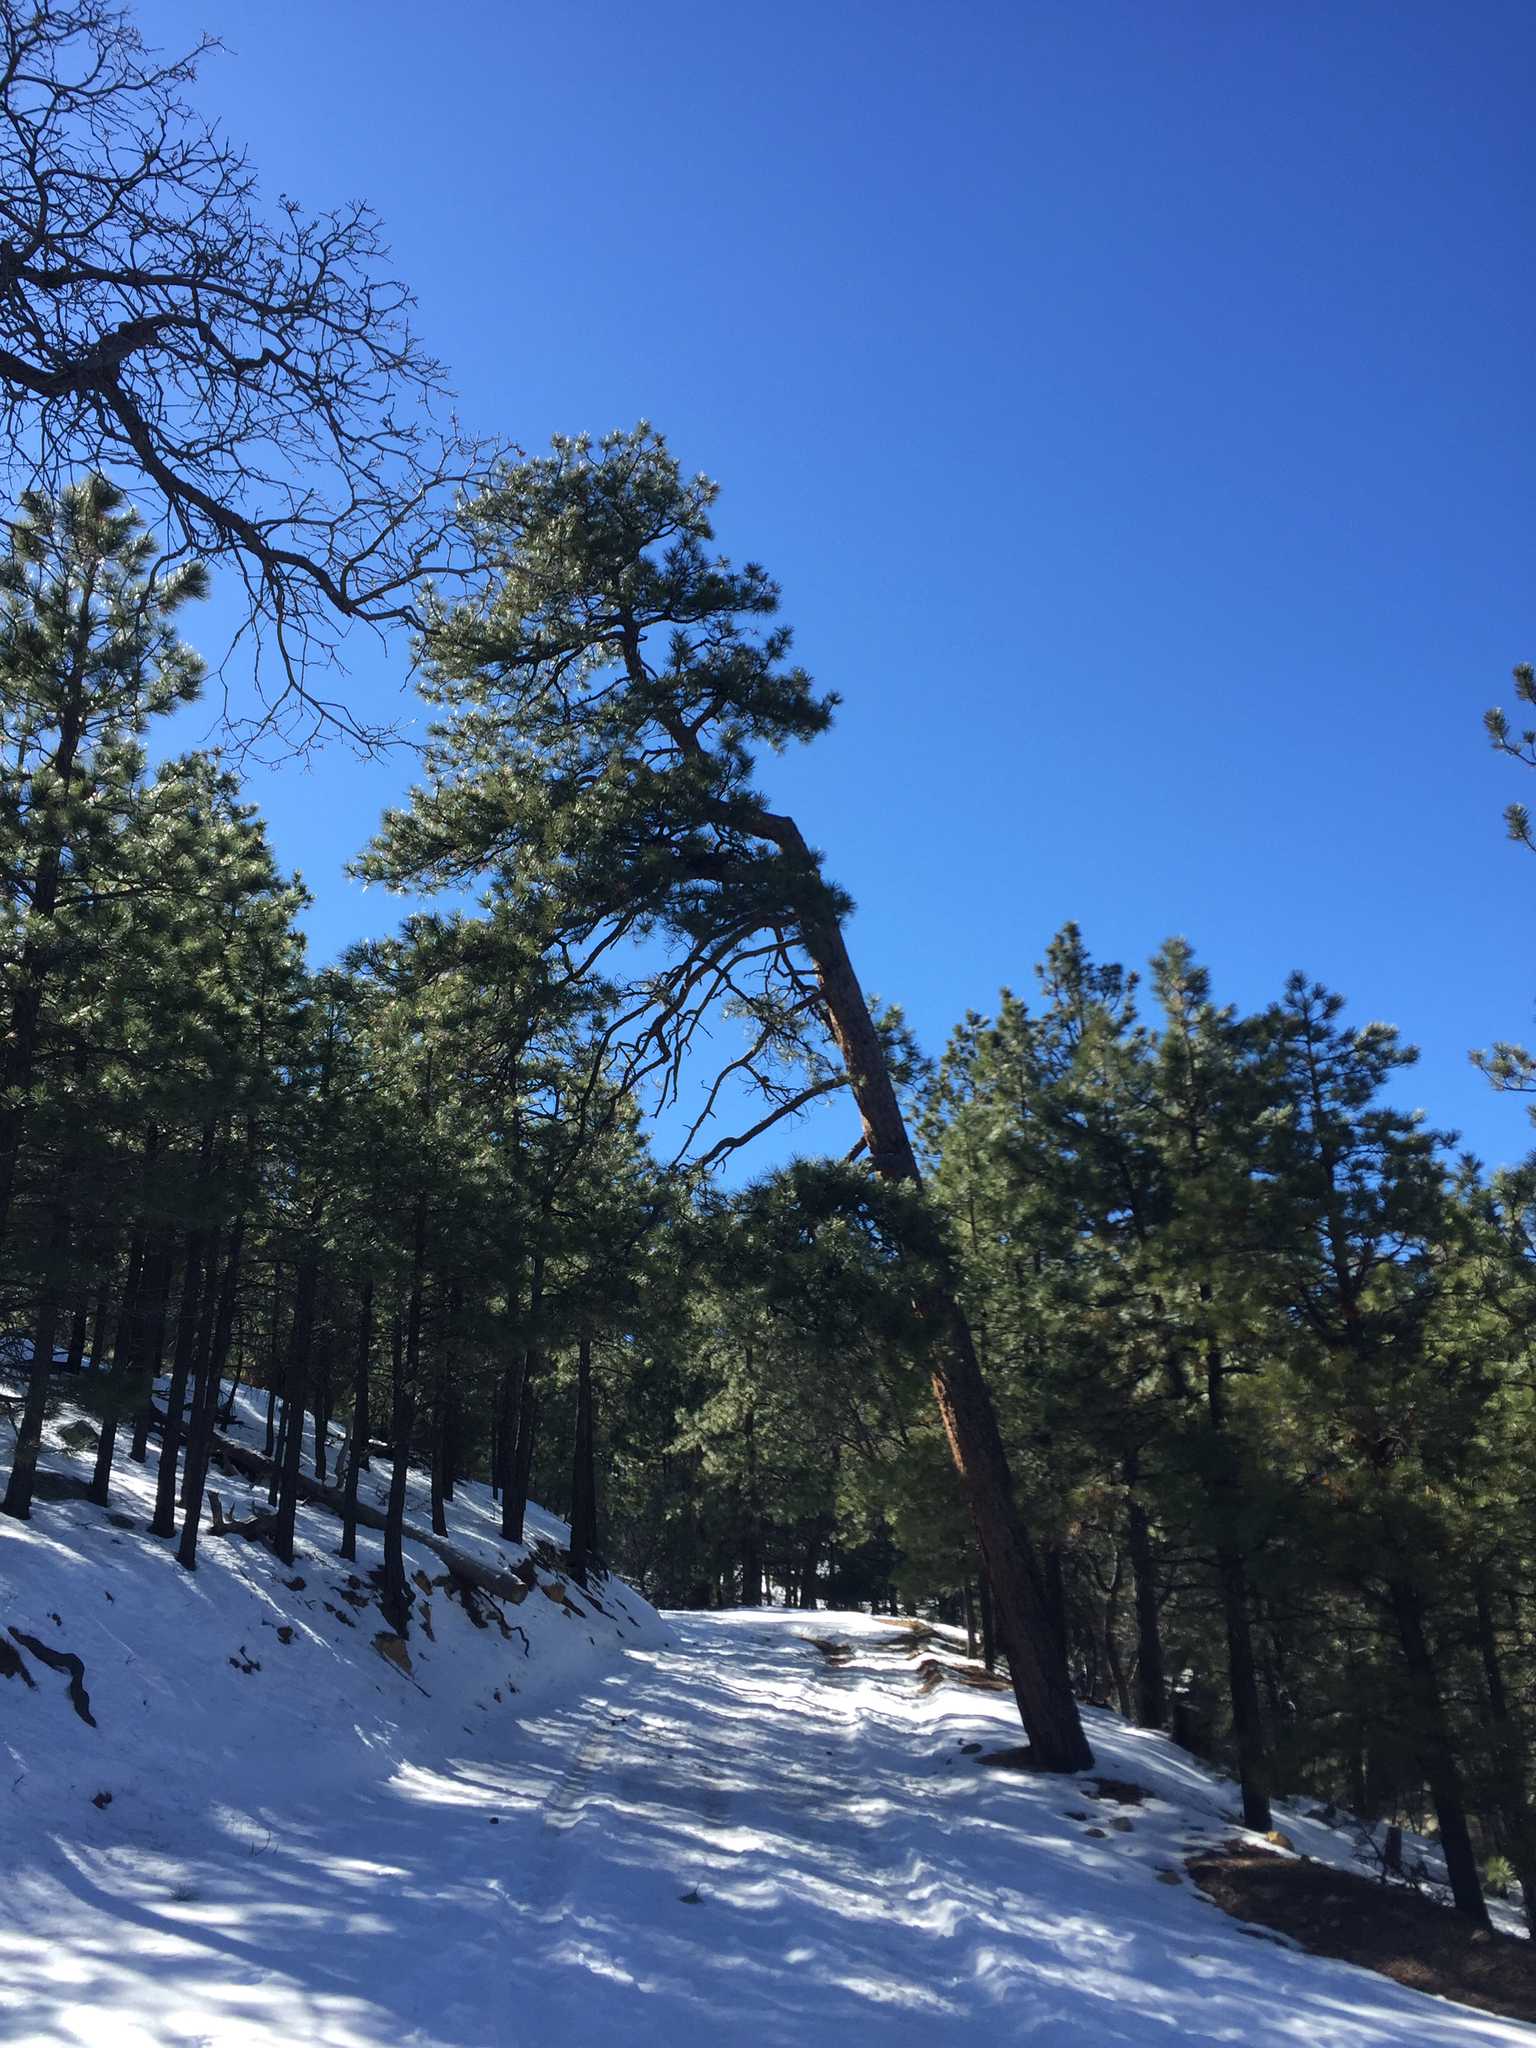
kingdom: Plantae
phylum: Tracheophyta
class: Pinopsida
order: Pinales
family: Pinaceae
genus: Pinus
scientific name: Pinus ponderosa
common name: Western yellow-pine
